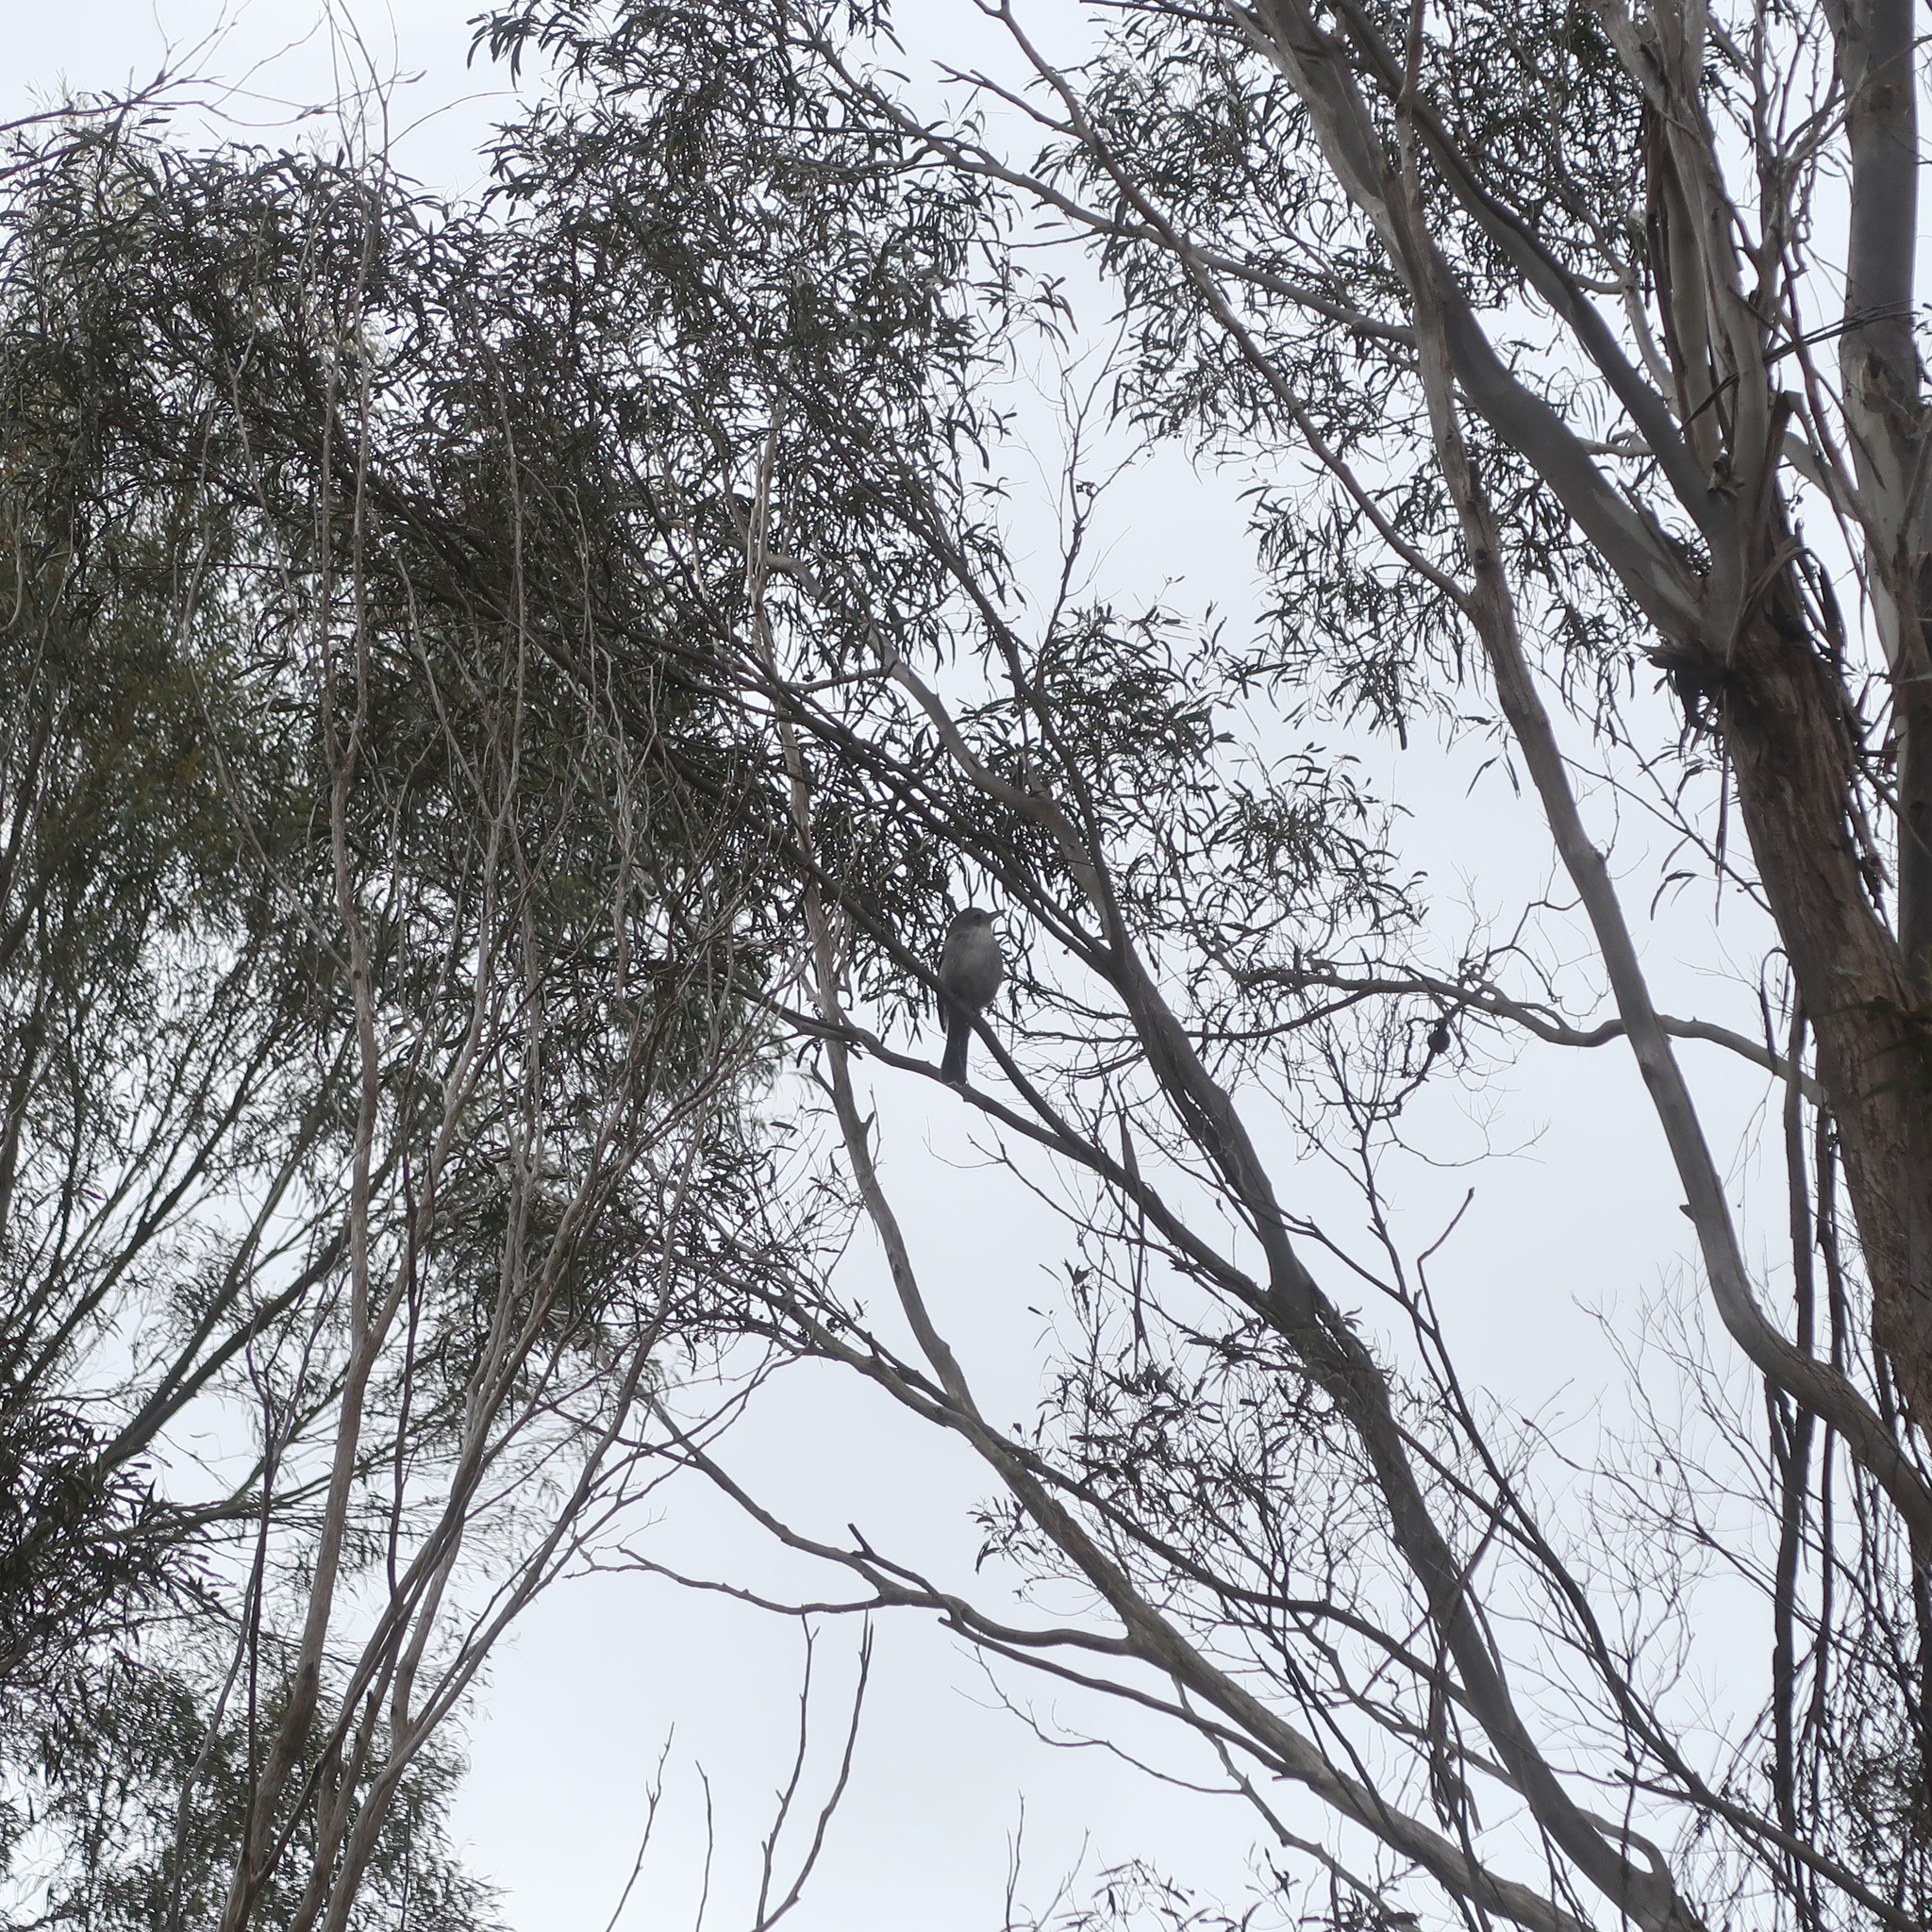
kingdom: Animalia
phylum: Chordata
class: Aves
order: Passeriformes
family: Pachycephalidae
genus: Colluricincla
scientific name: Colluricincla harmonica
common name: Grey shrikethrush
